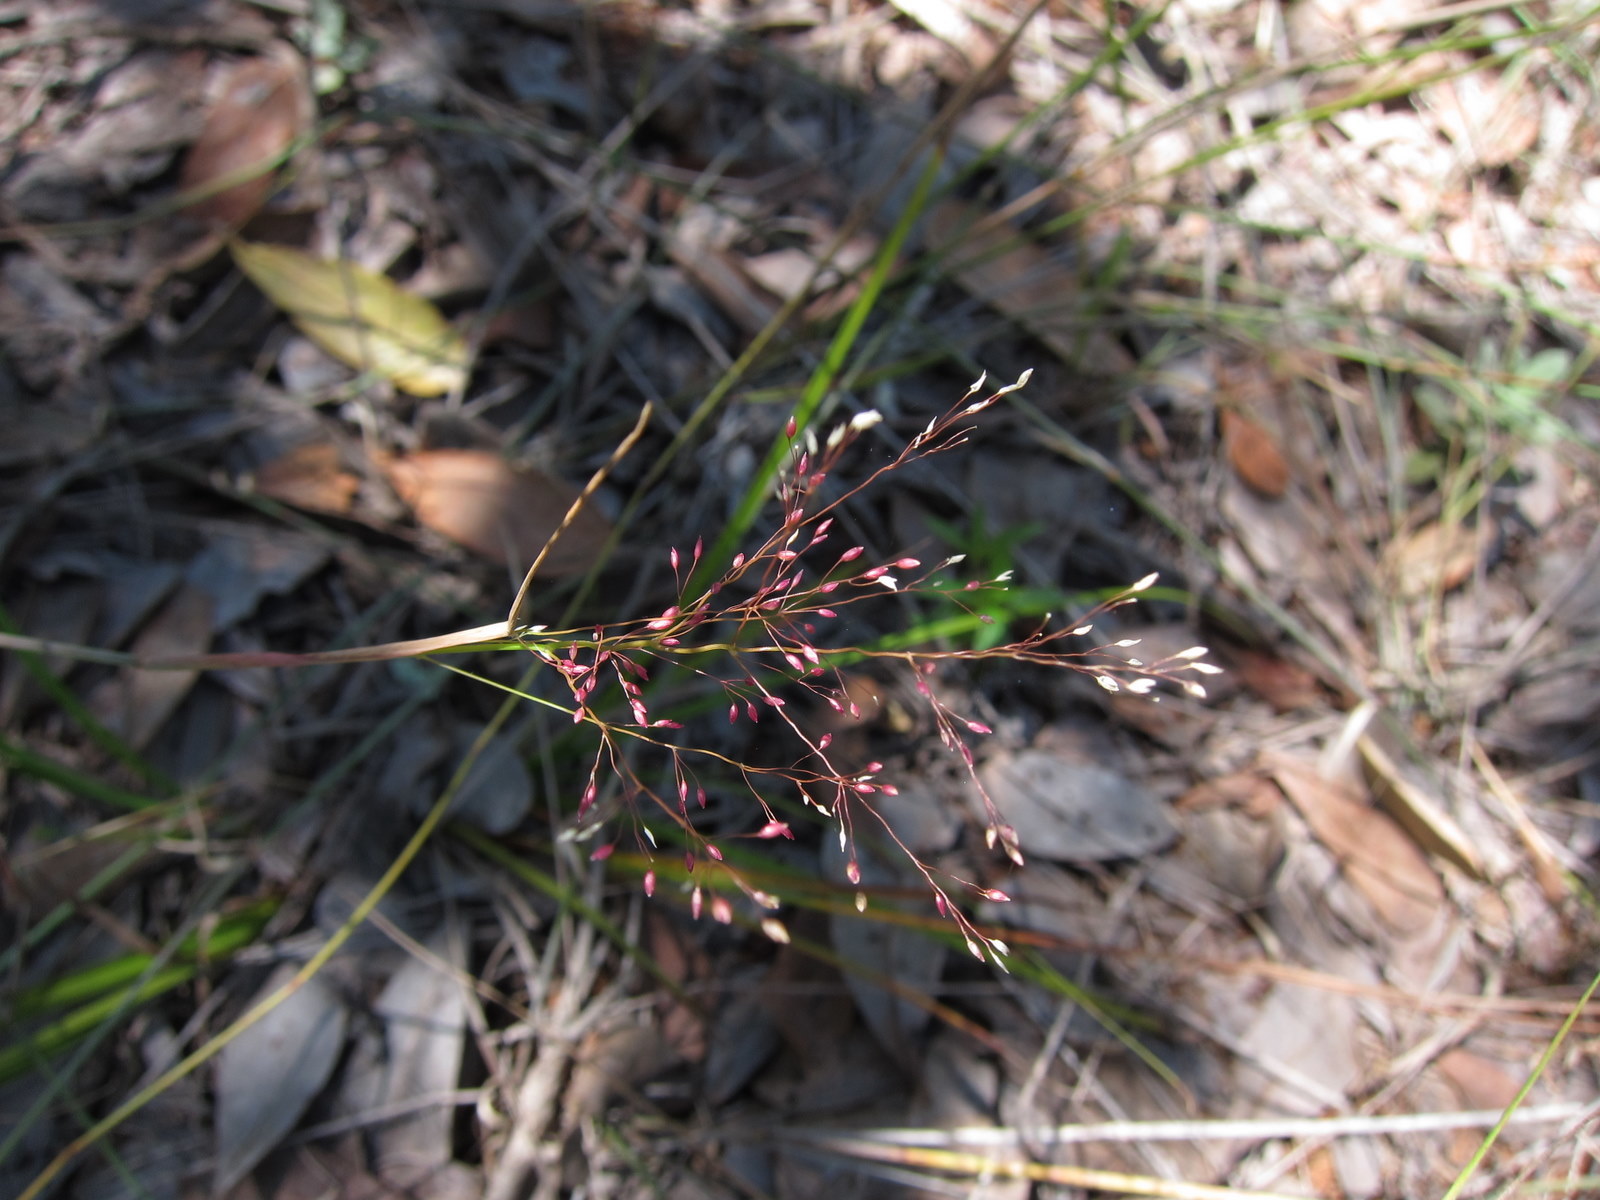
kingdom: Plantae
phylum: Tracheophyta
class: Liliopsida
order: Poales
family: Poaceae
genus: Panicum
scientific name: Panicum ibitense
